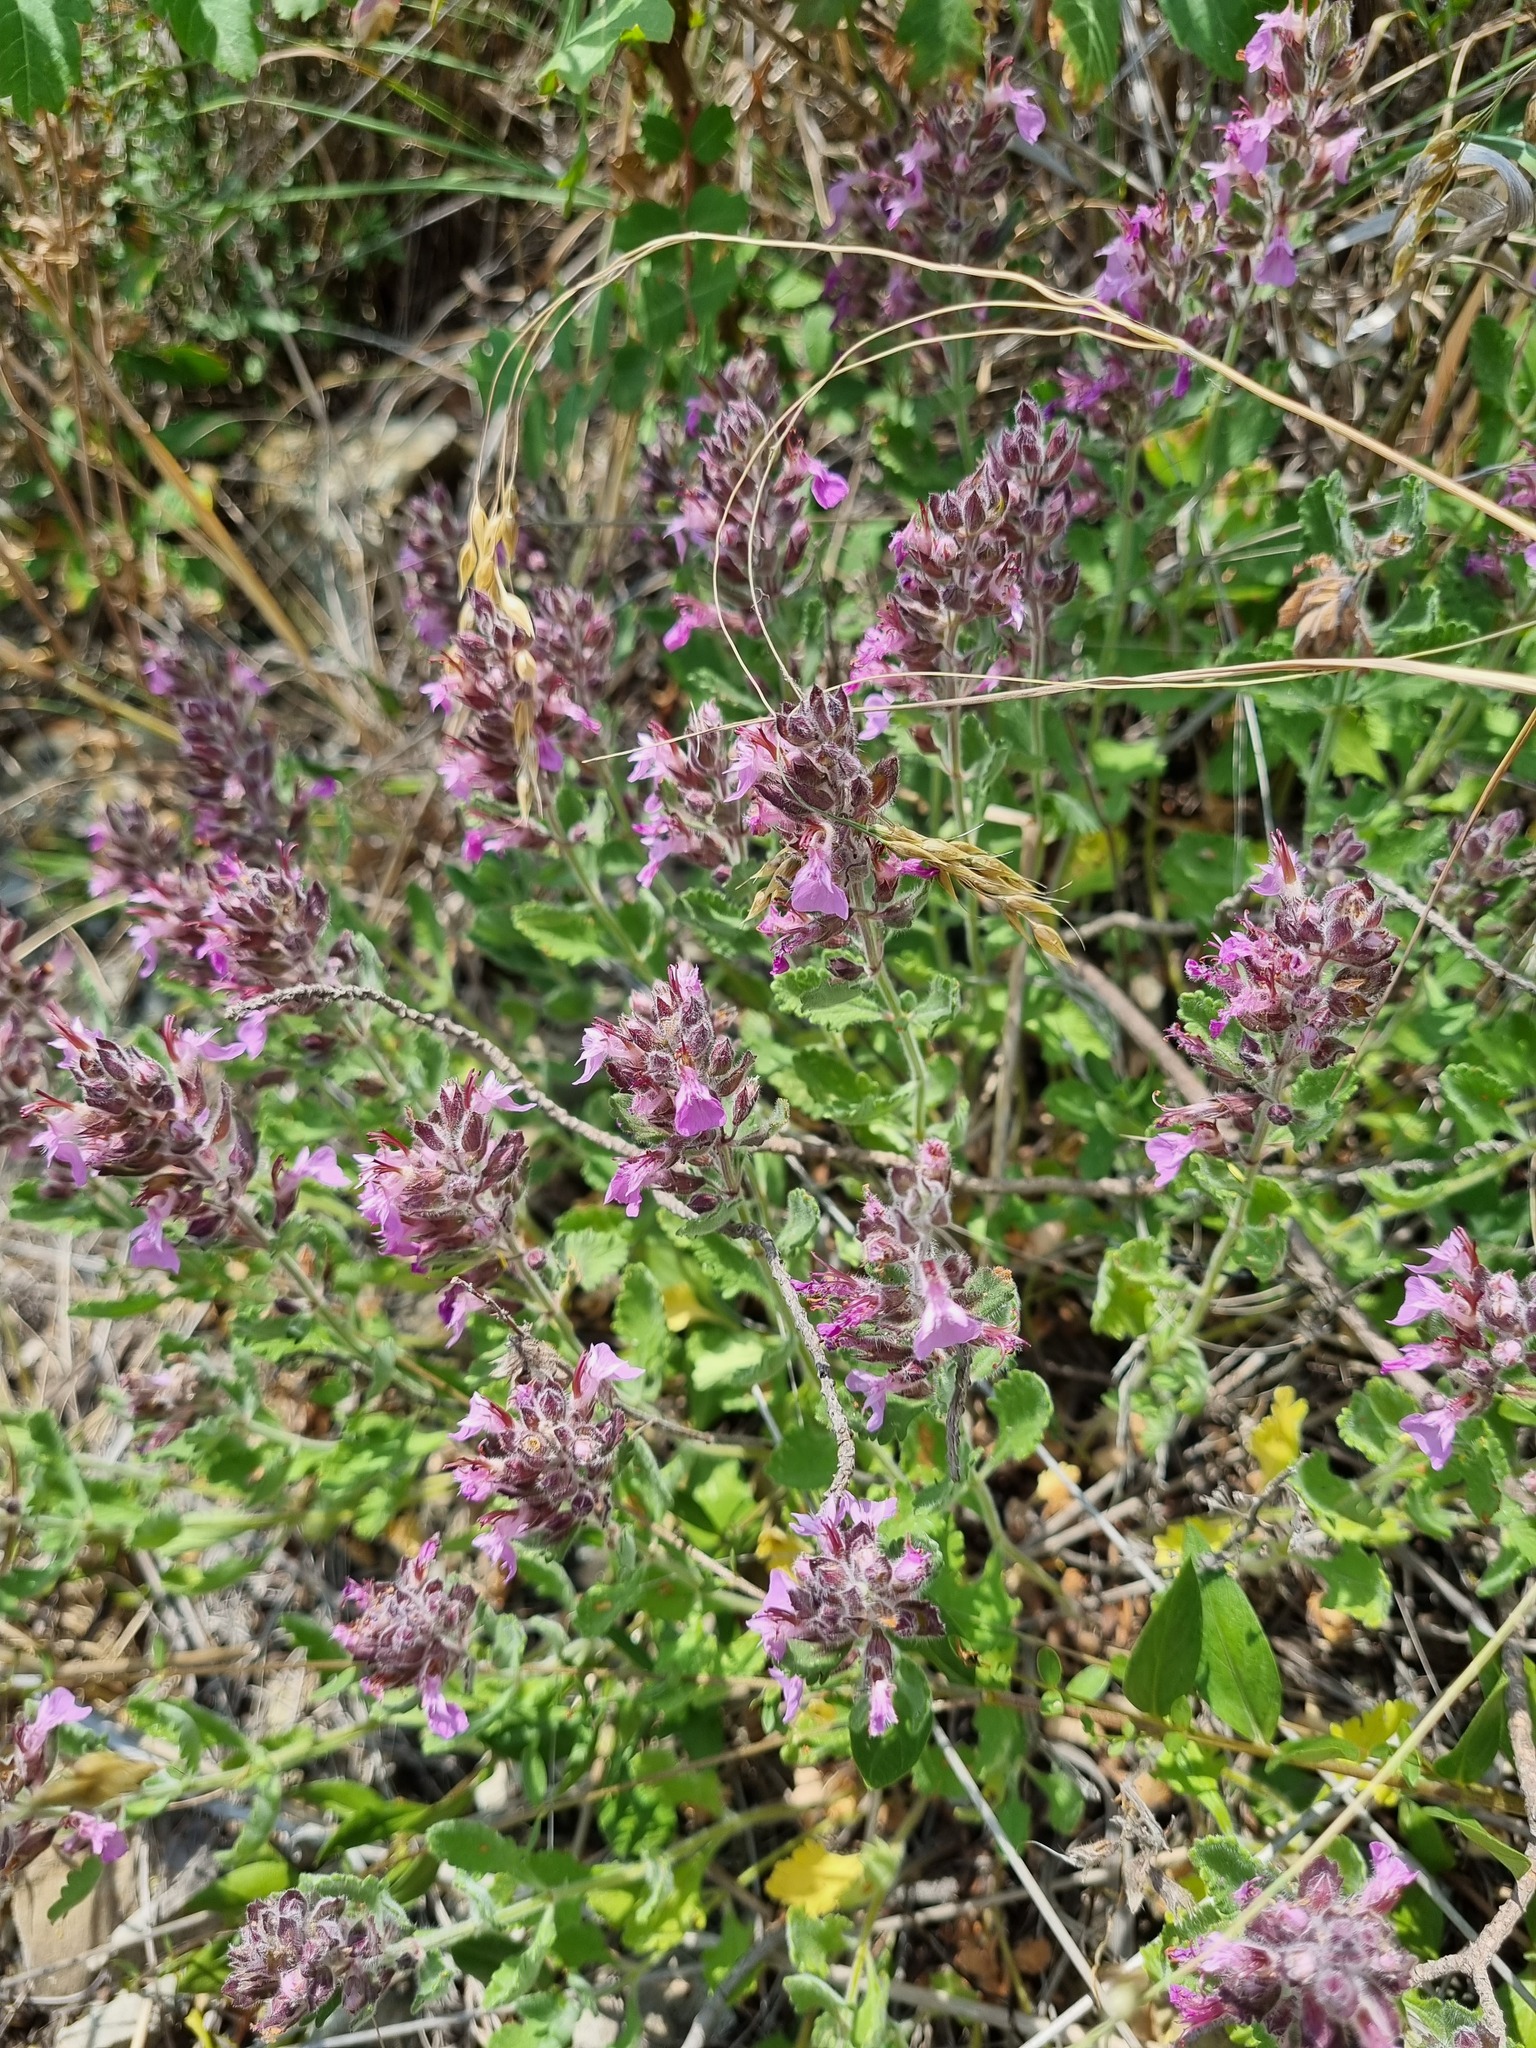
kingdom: Plantae
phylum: Tracheophyta
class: Magnoliopsida
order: Lamiales
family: Lamiaceae
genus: Teucrium
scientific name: Teucrium chamaedrys
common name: Wall germander
